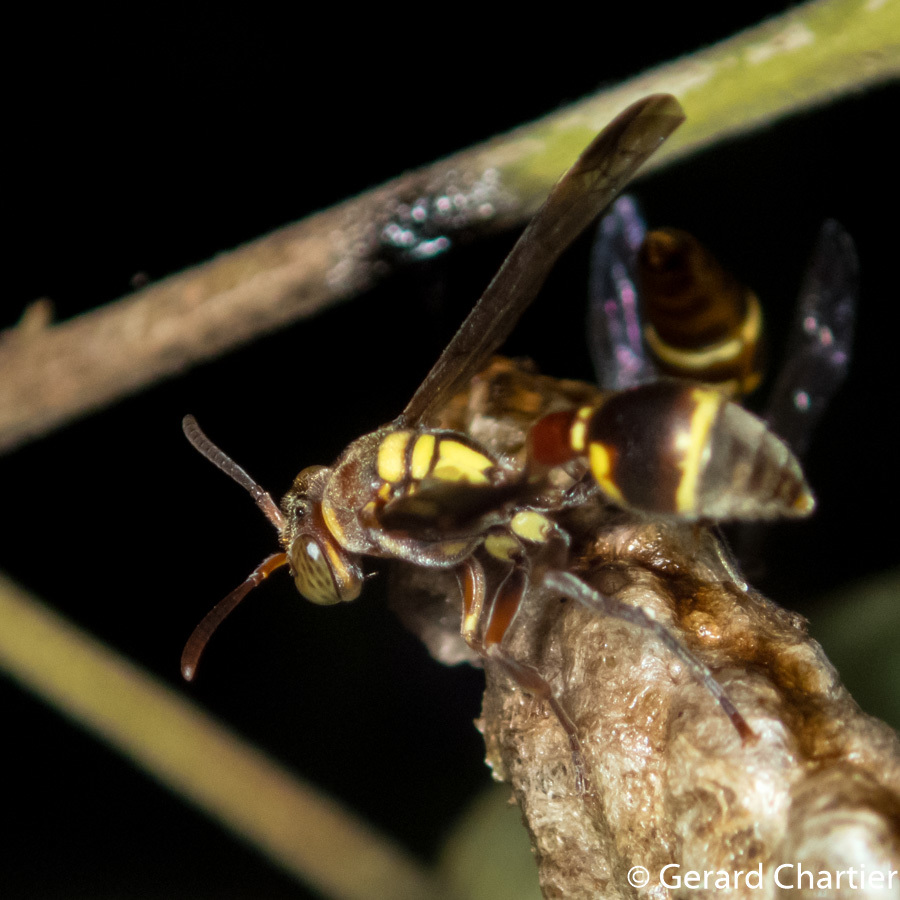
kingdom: Animalia
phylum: Arthropoda
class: Insecta
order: Hymenoptera
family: Vespidae
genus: Ropalidia
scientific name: Ropalidia stigma
